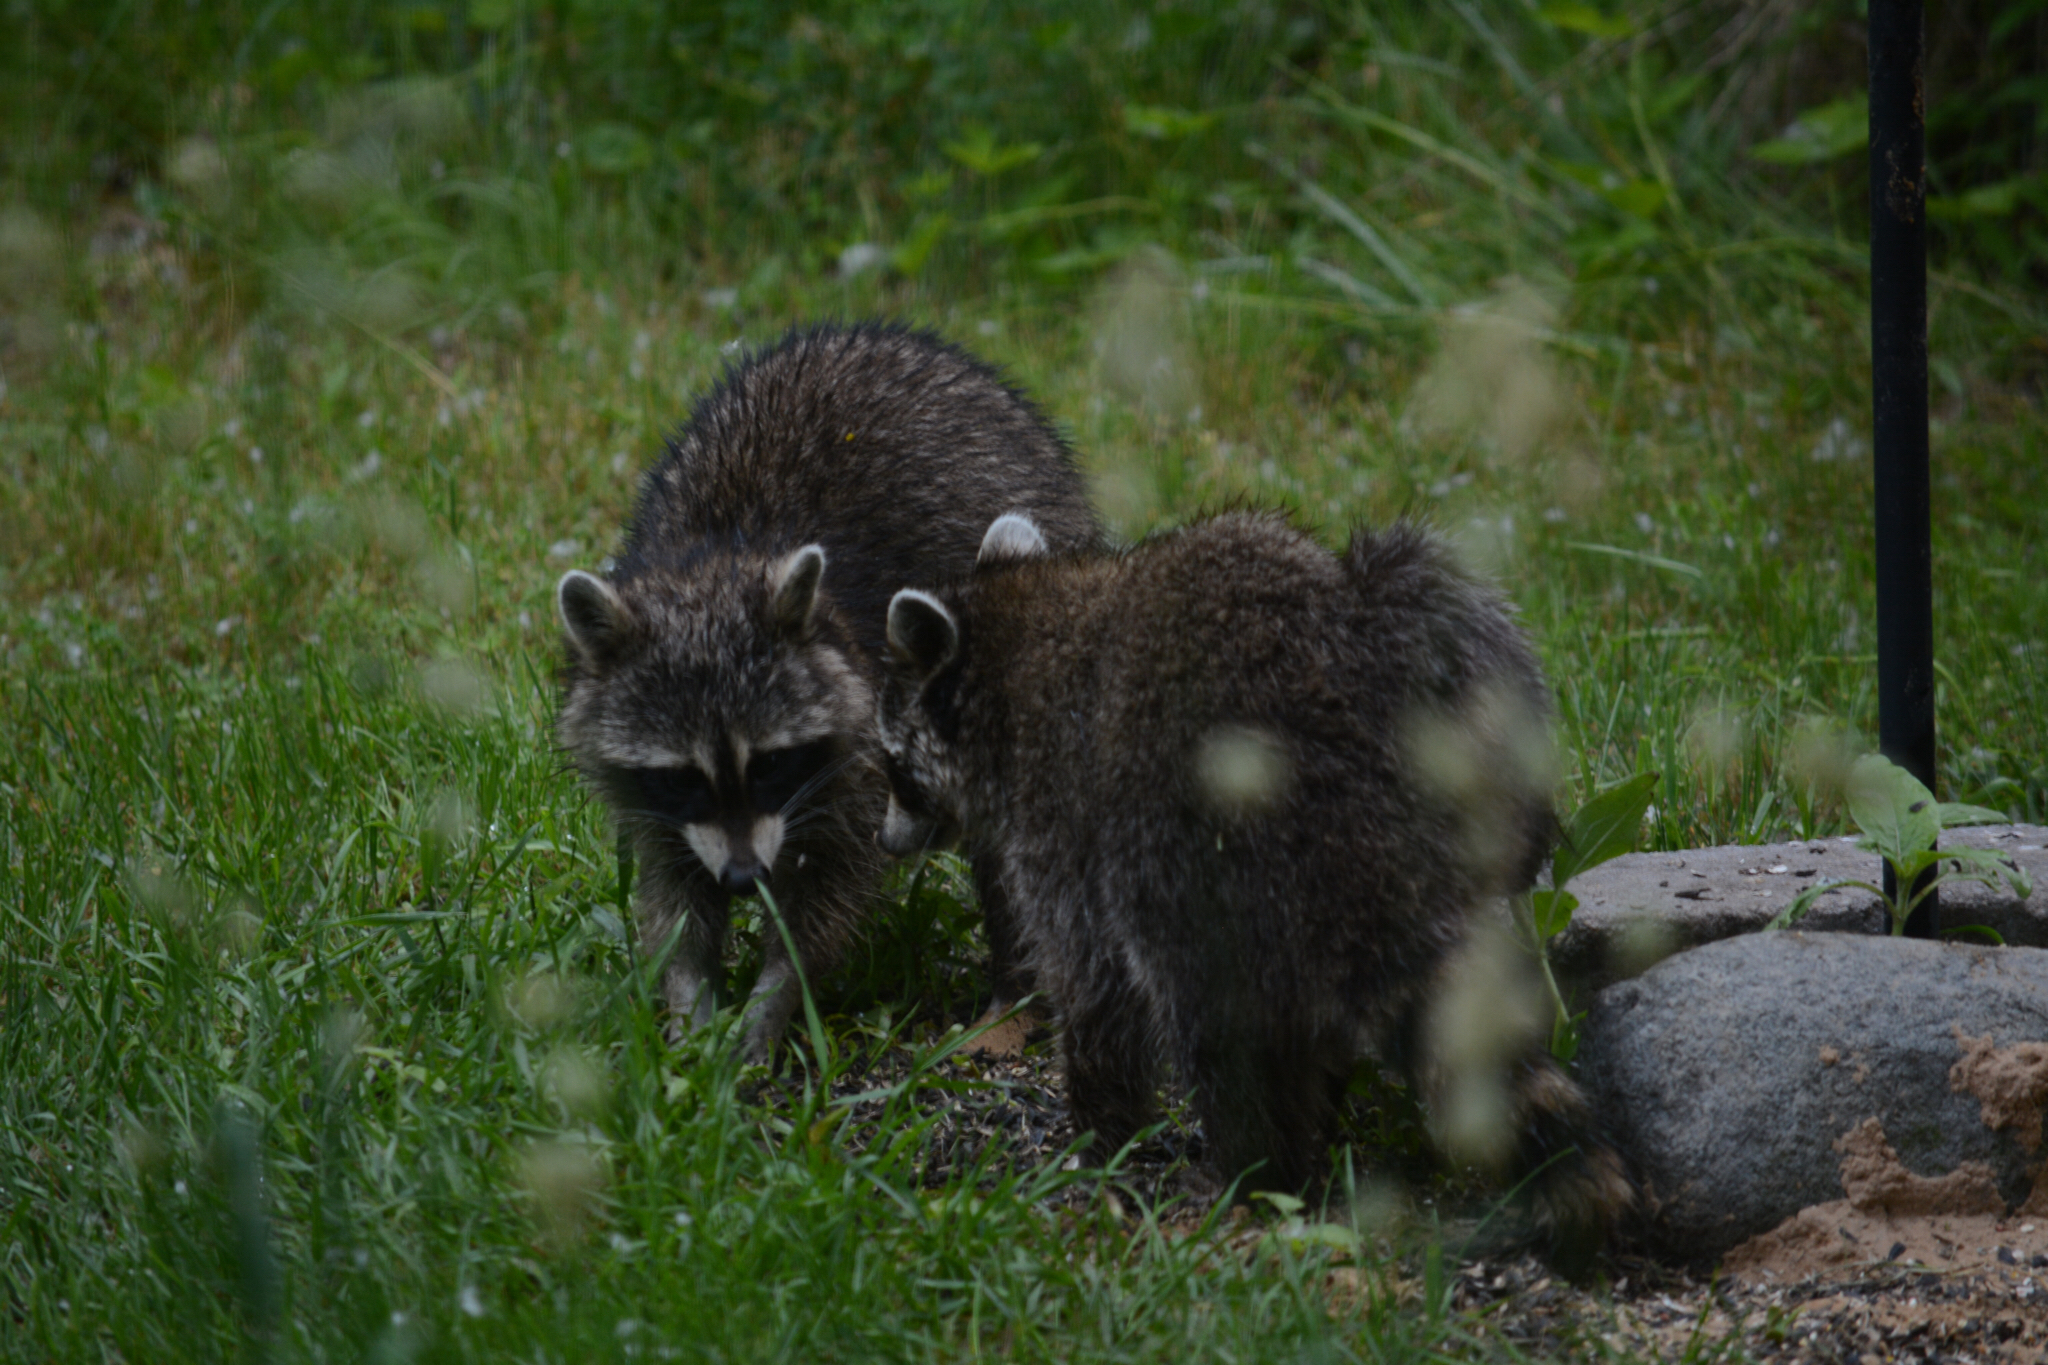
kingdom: Animalia
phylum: Chordata
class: Mammalia
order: Carnivora
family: Procyonidae
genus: Procyon
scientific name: Procyon lotor
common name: Raccoon
